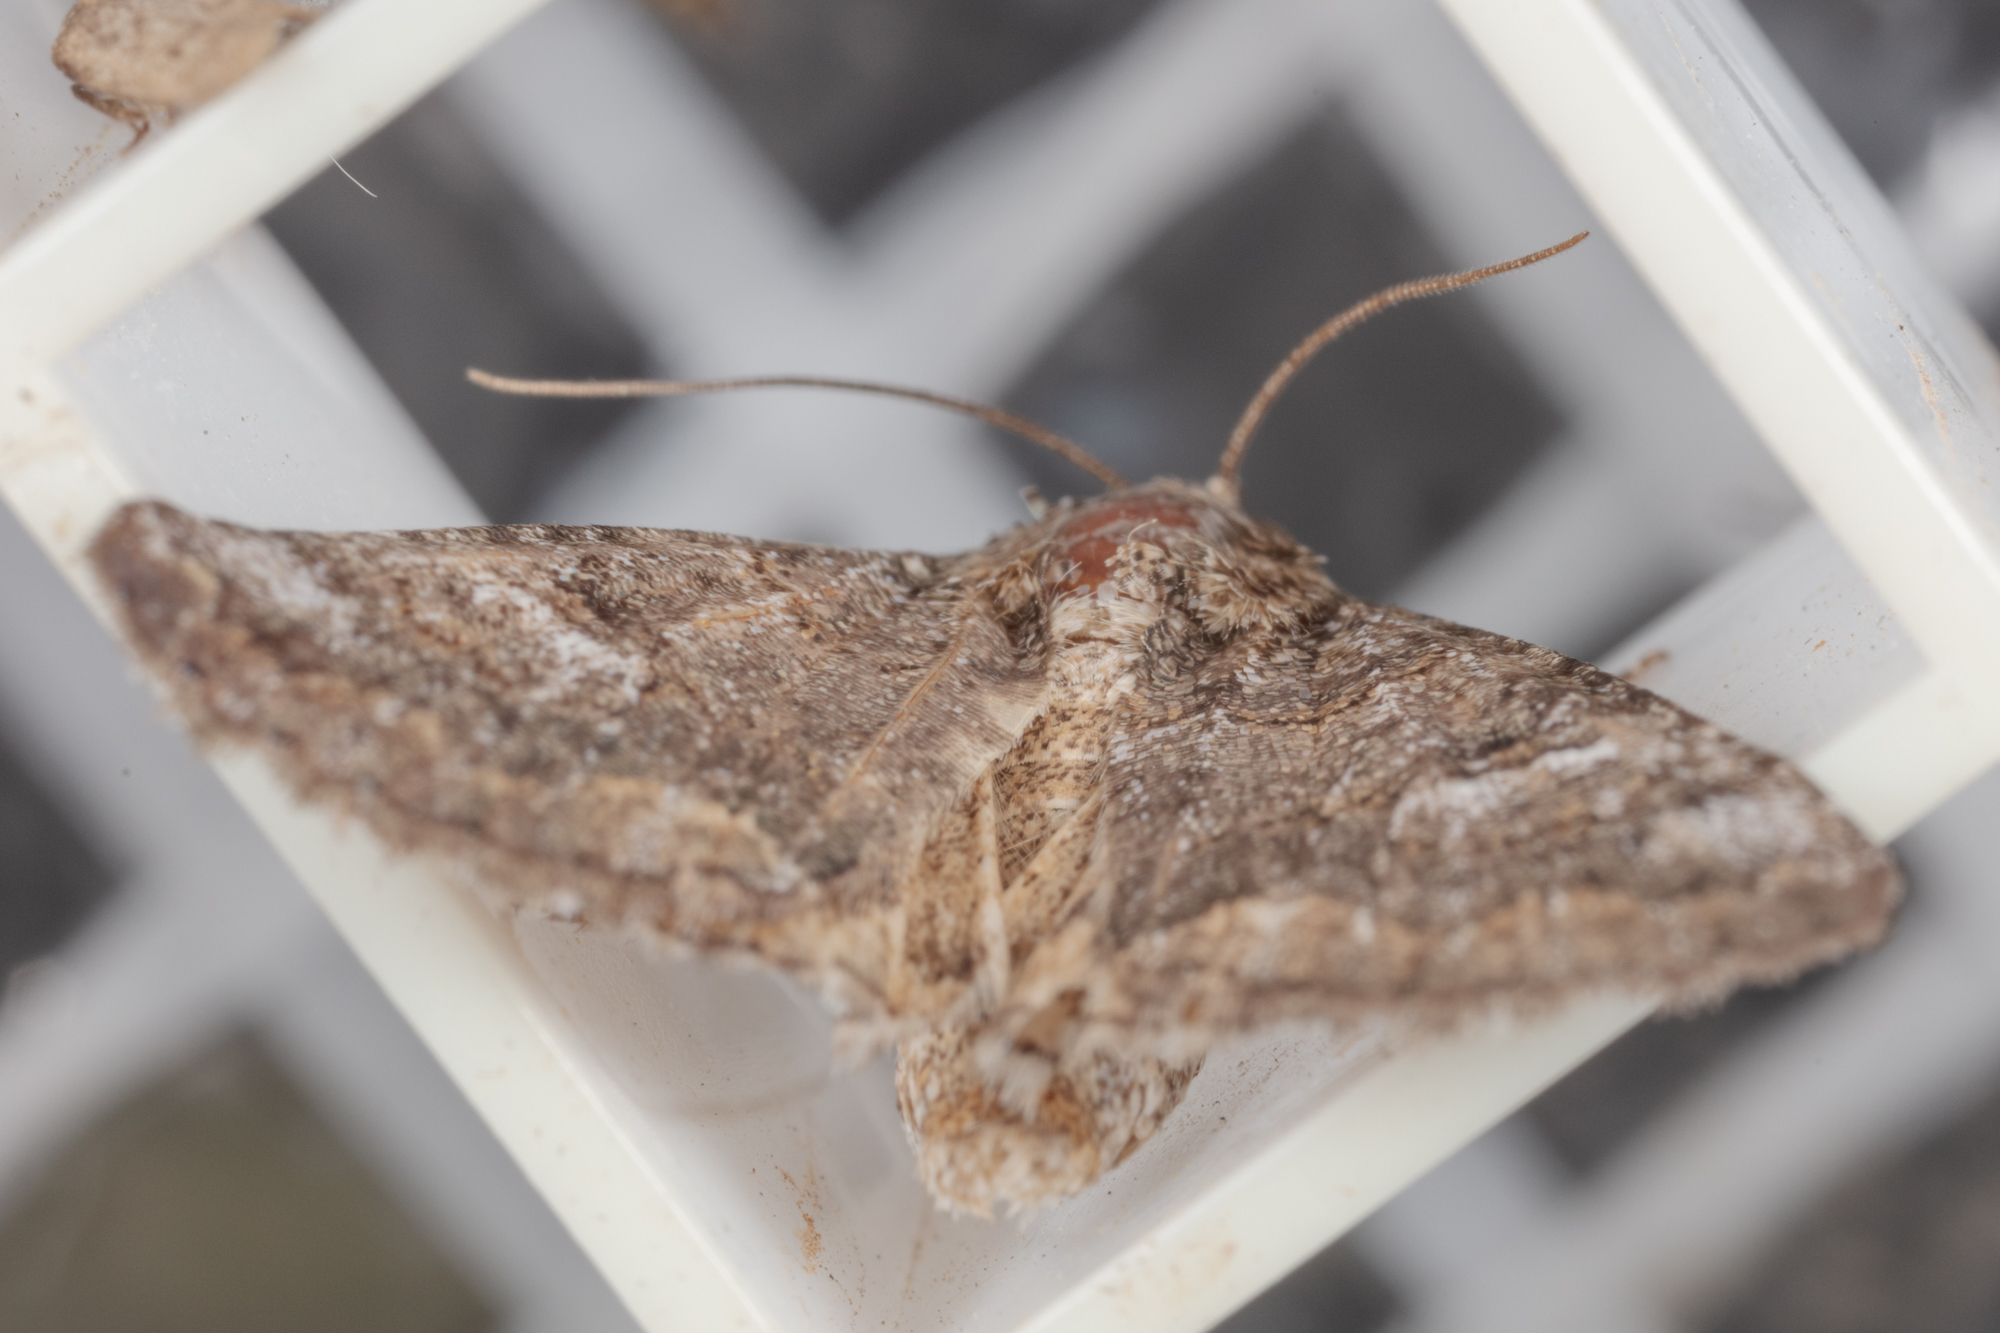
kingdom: Animalia
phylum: Arthropoda
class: Insecta
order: Lepidoptera
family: Erebidae
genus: Eubolina
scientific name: Eubolina impartialis
